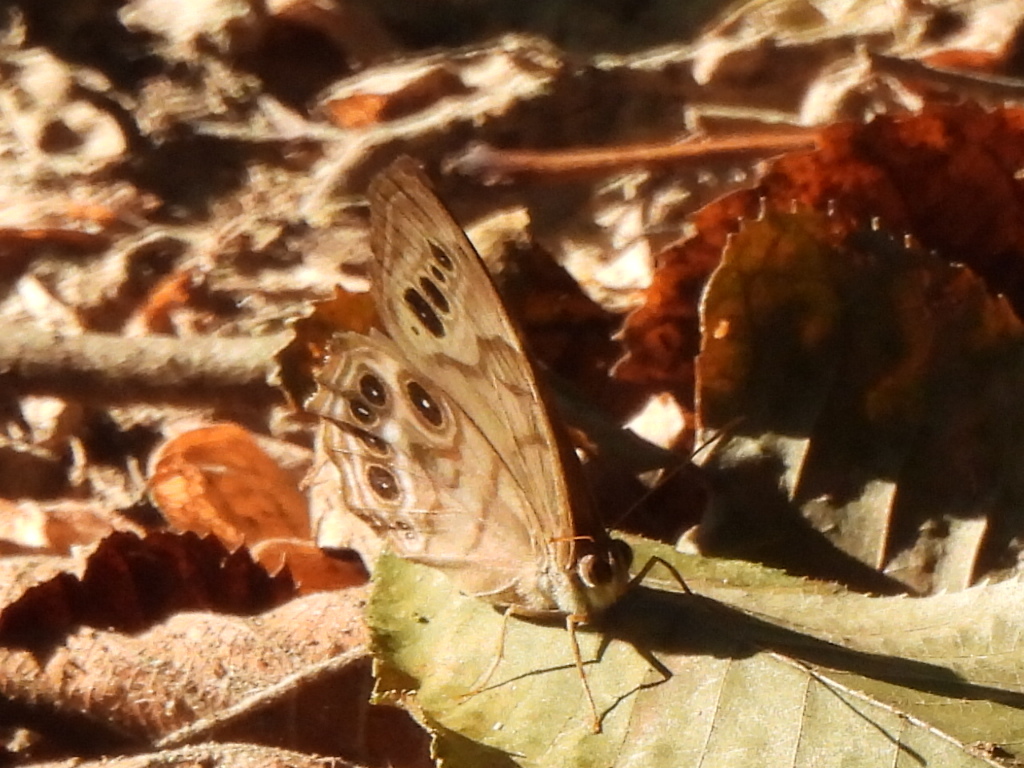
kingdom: Animalia
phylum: Arthropoda
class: Insecta
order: Lepidoptera
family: Nymphalidae
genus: Enodia
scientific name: Enodia portlandia
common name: Southern pearly-eye
